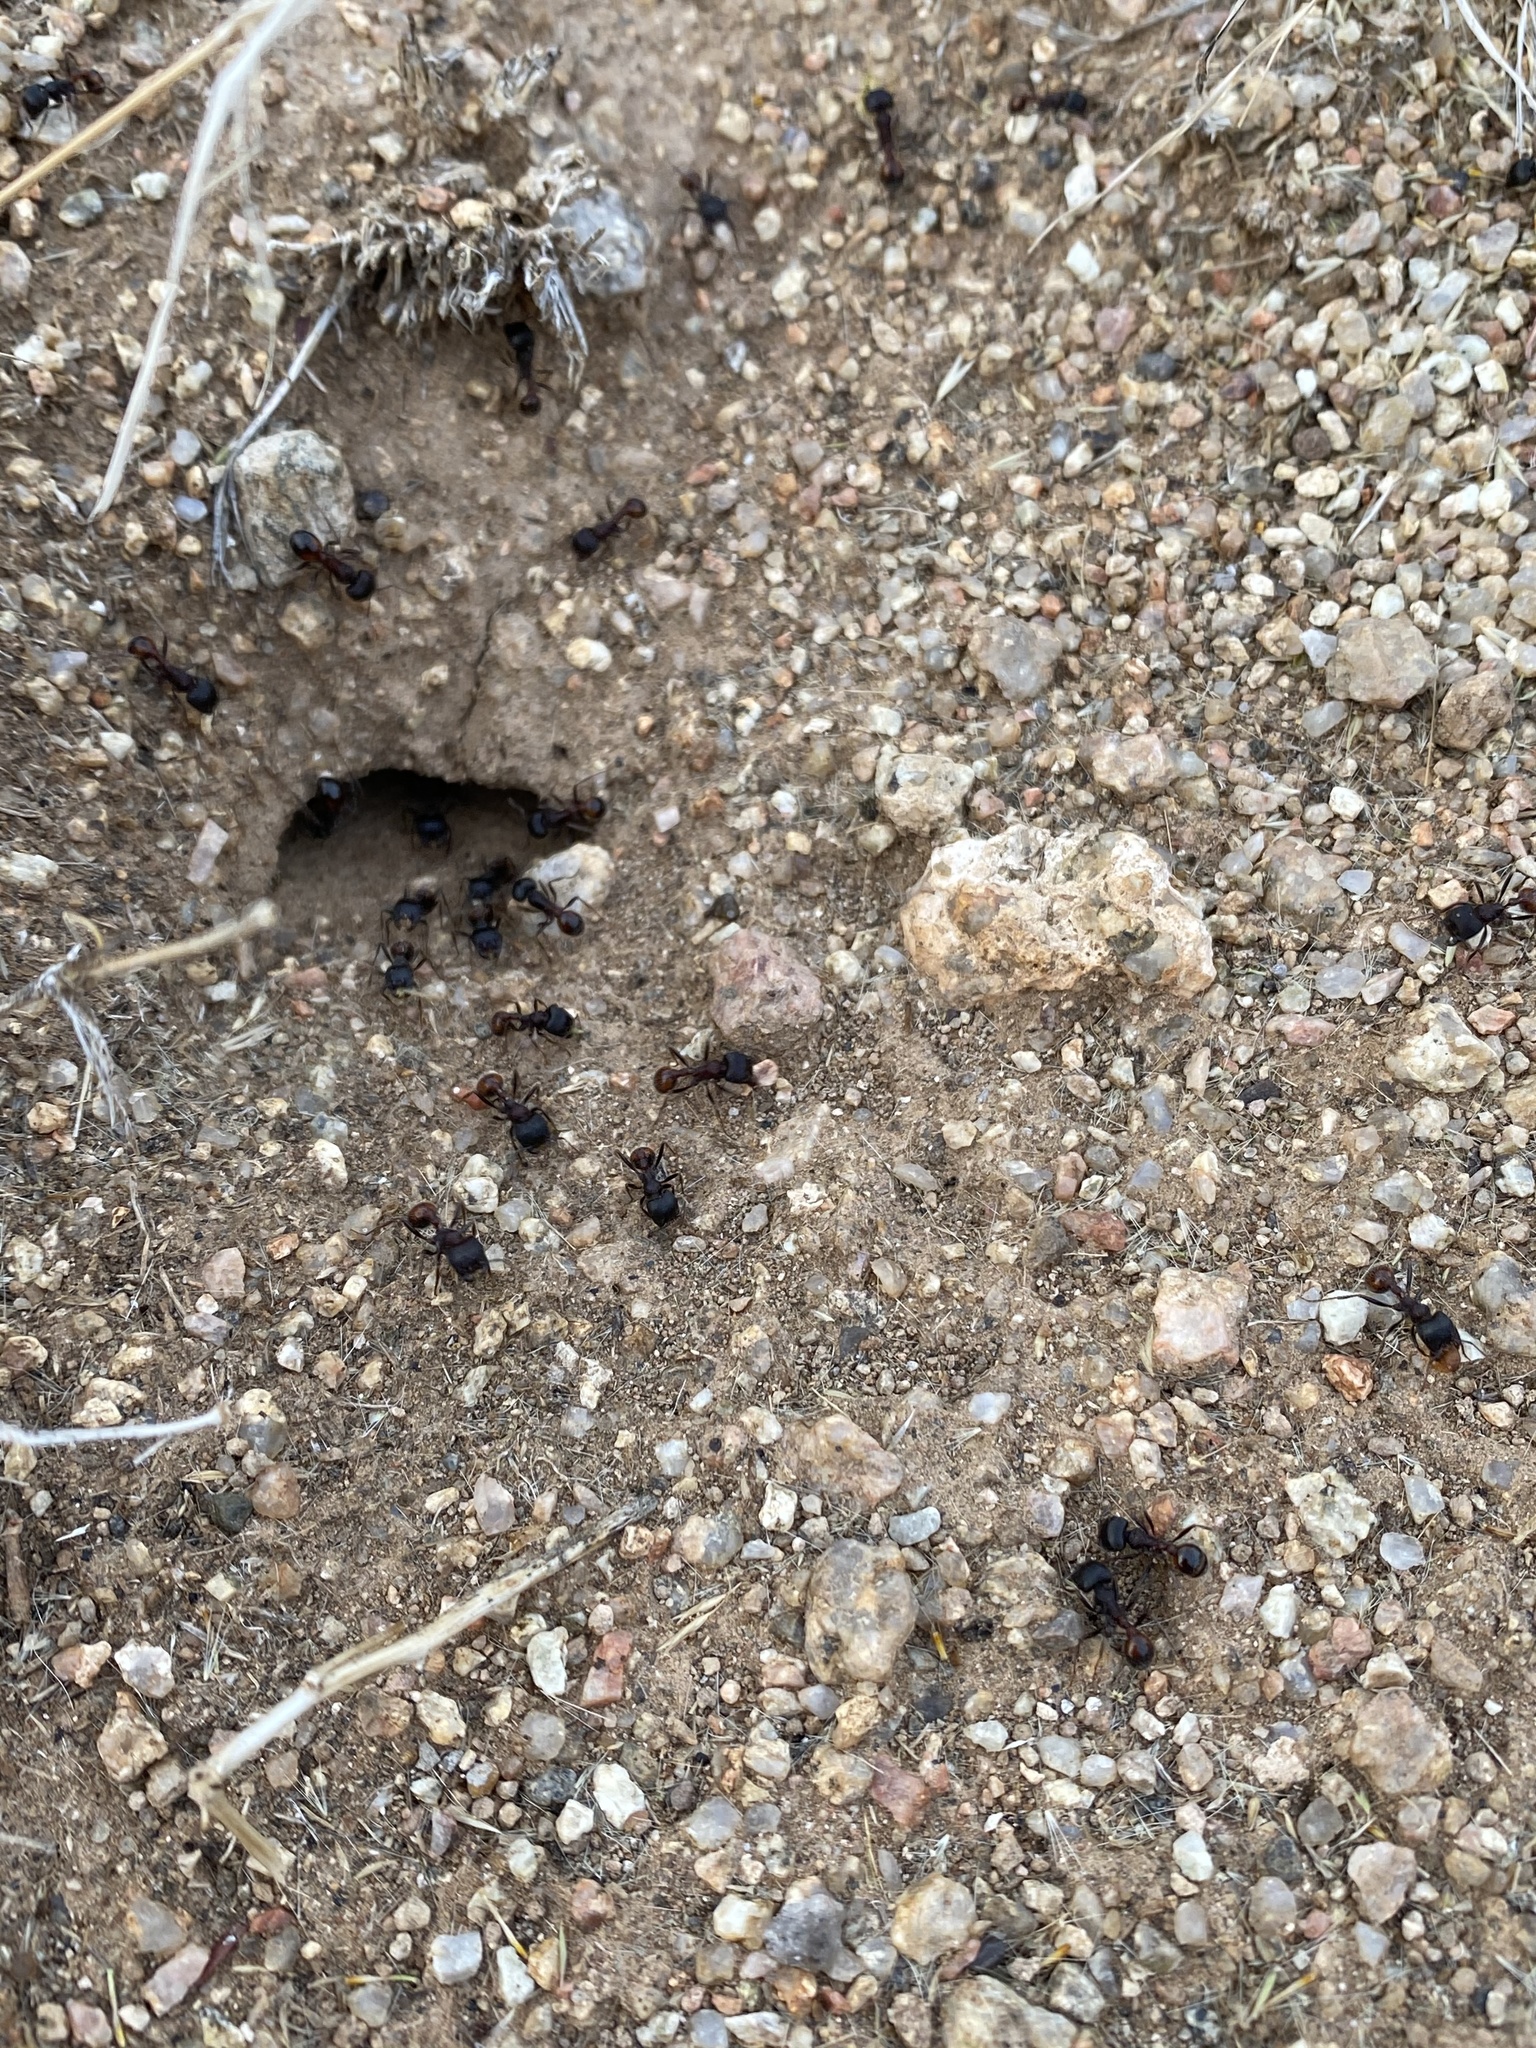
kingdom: Animalia
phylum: Arthropoda
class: Insecta
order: Hymenoptera
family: Formicidae
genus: Pogonomyrmex
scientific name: Pogonomyrmex rugosus
